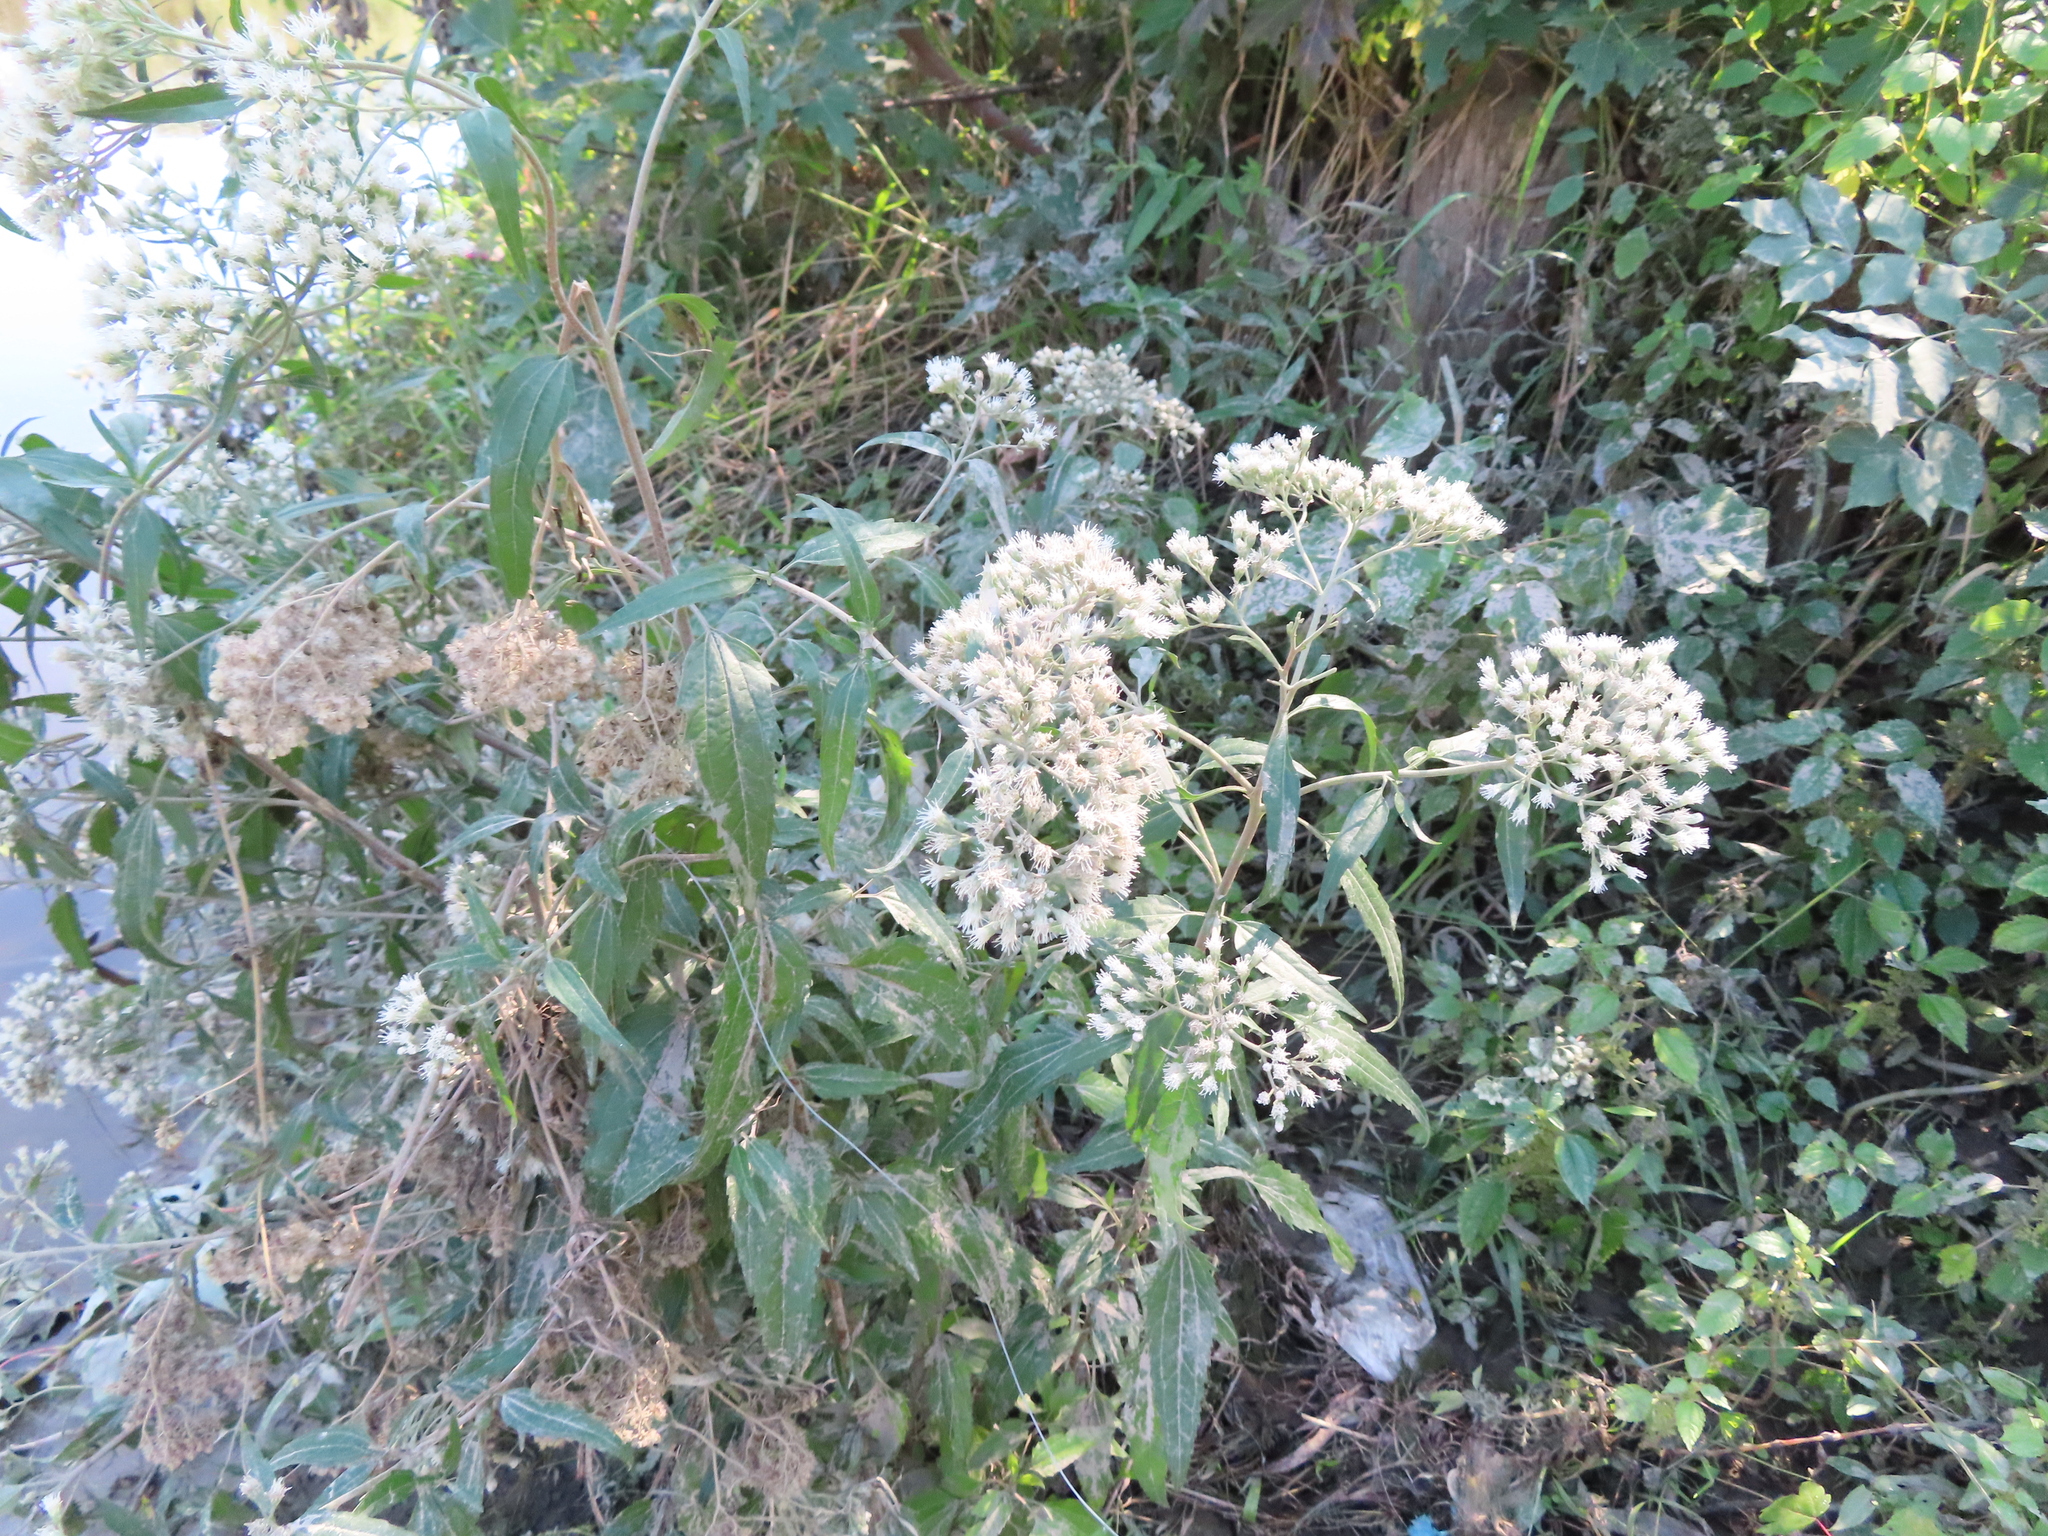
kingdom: Plantae
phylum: Tracheophyta
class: Magnoliopsida
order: Asterales
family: Asteraceae
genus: Eupatorium
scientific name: Eupatorium serotinum
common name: Late boneset
